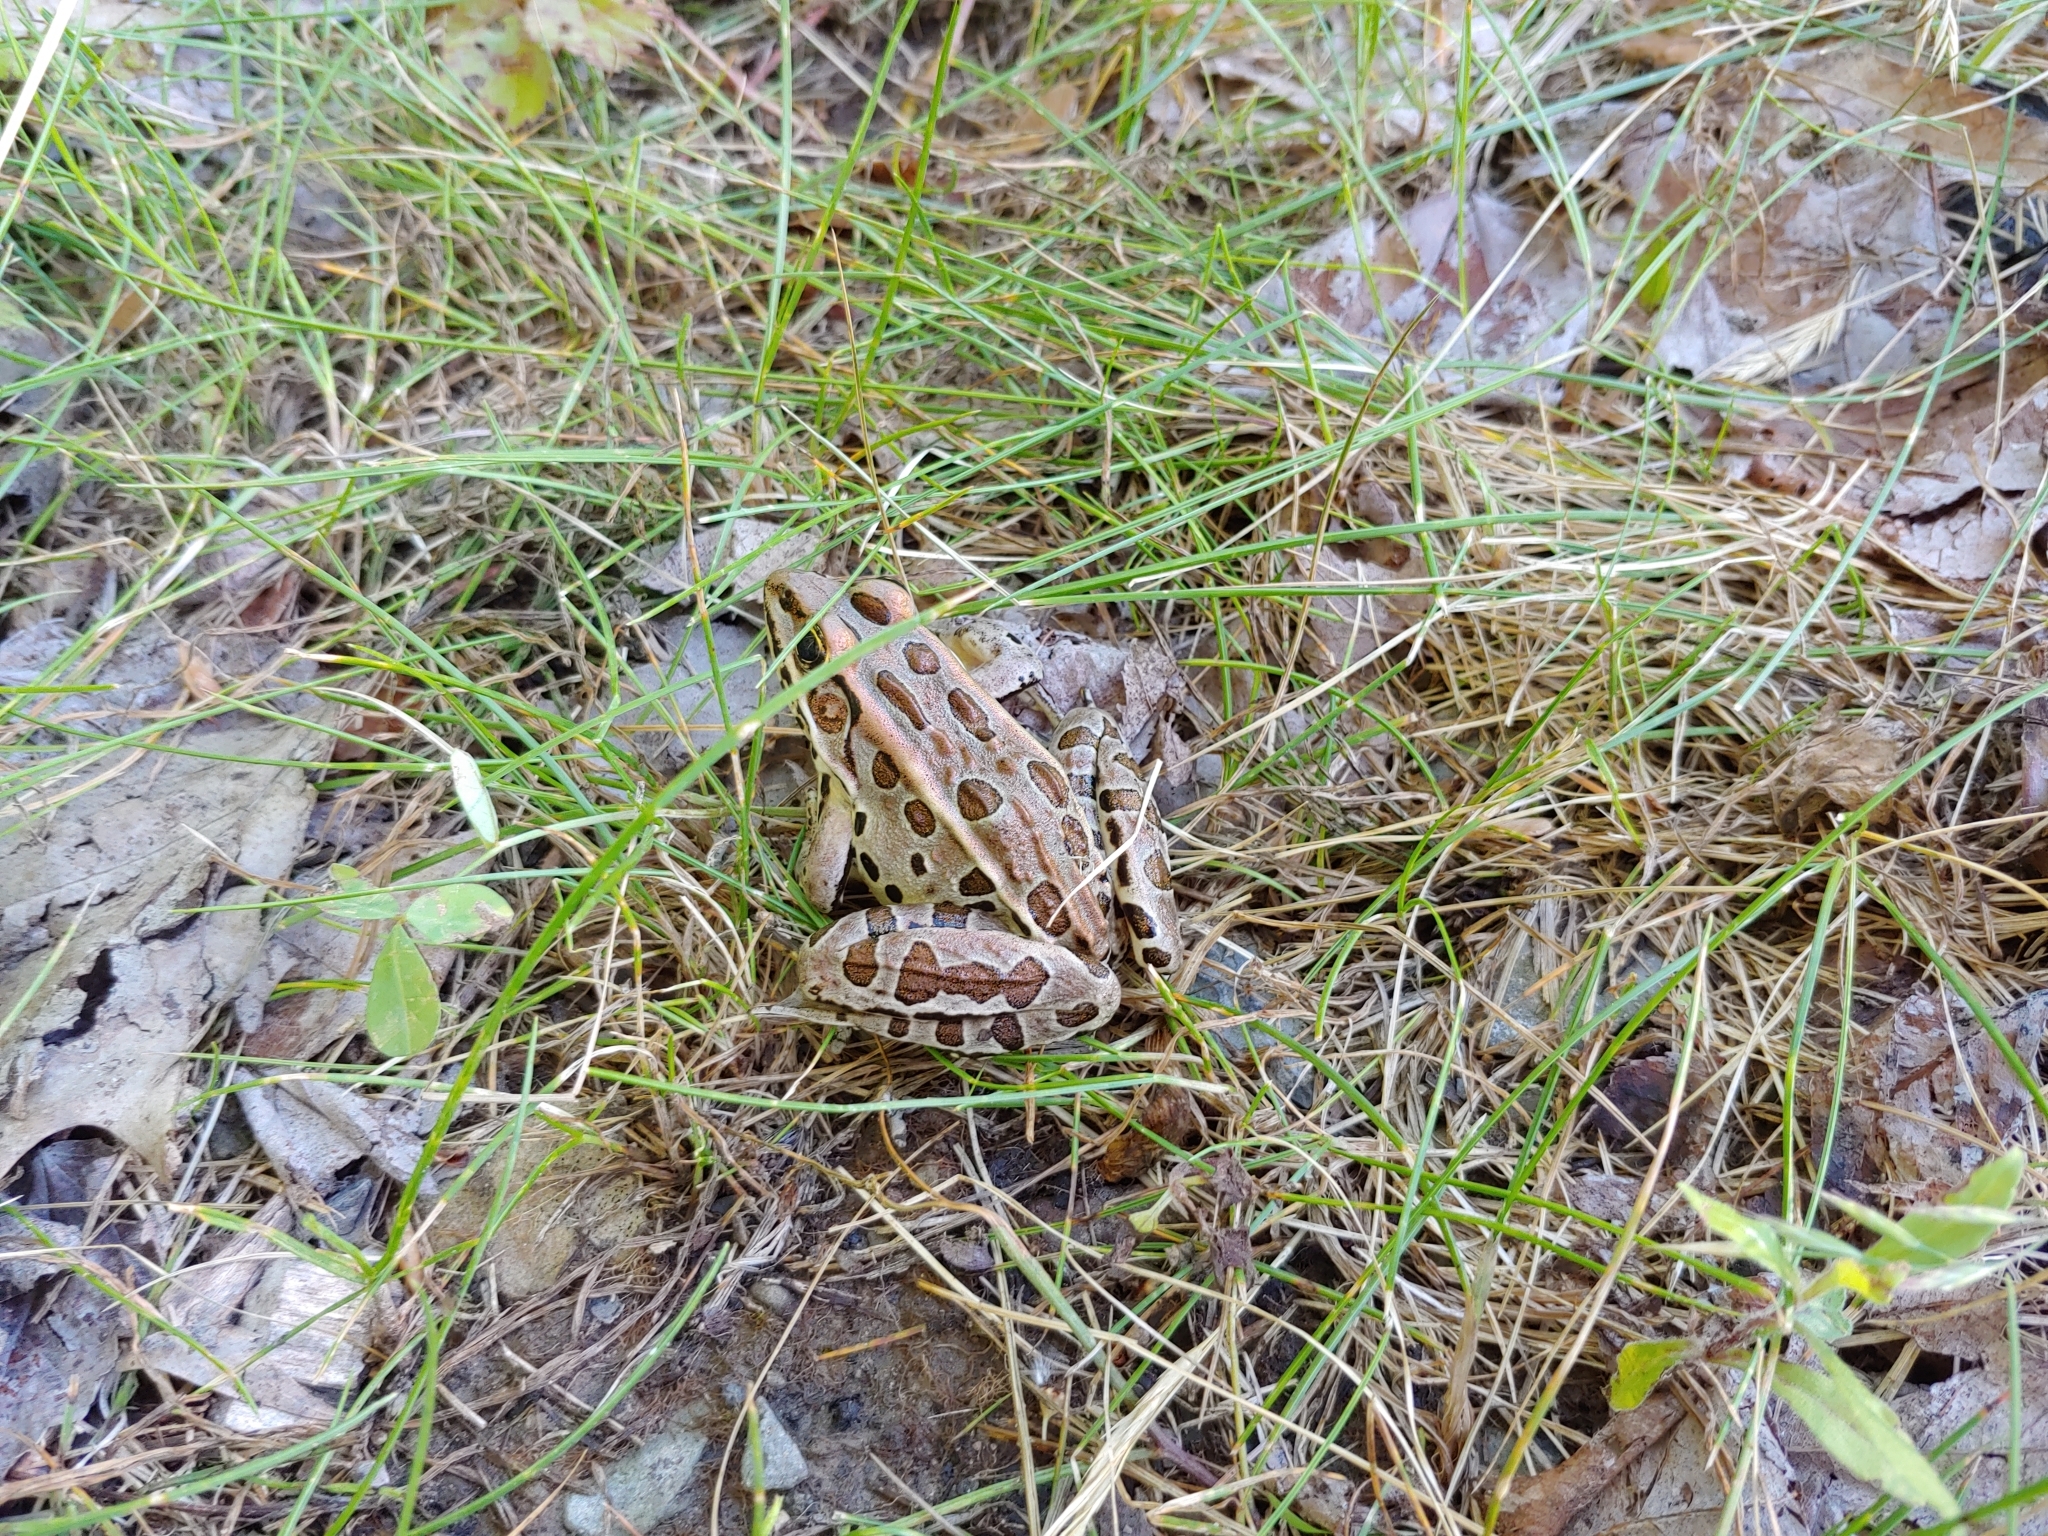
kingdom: Animalia
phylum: Chordata
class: Amphibia
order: Anura
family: Ranidae
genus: Lithobates
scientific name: Lithobates pipiens
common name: Northern leopard frog
